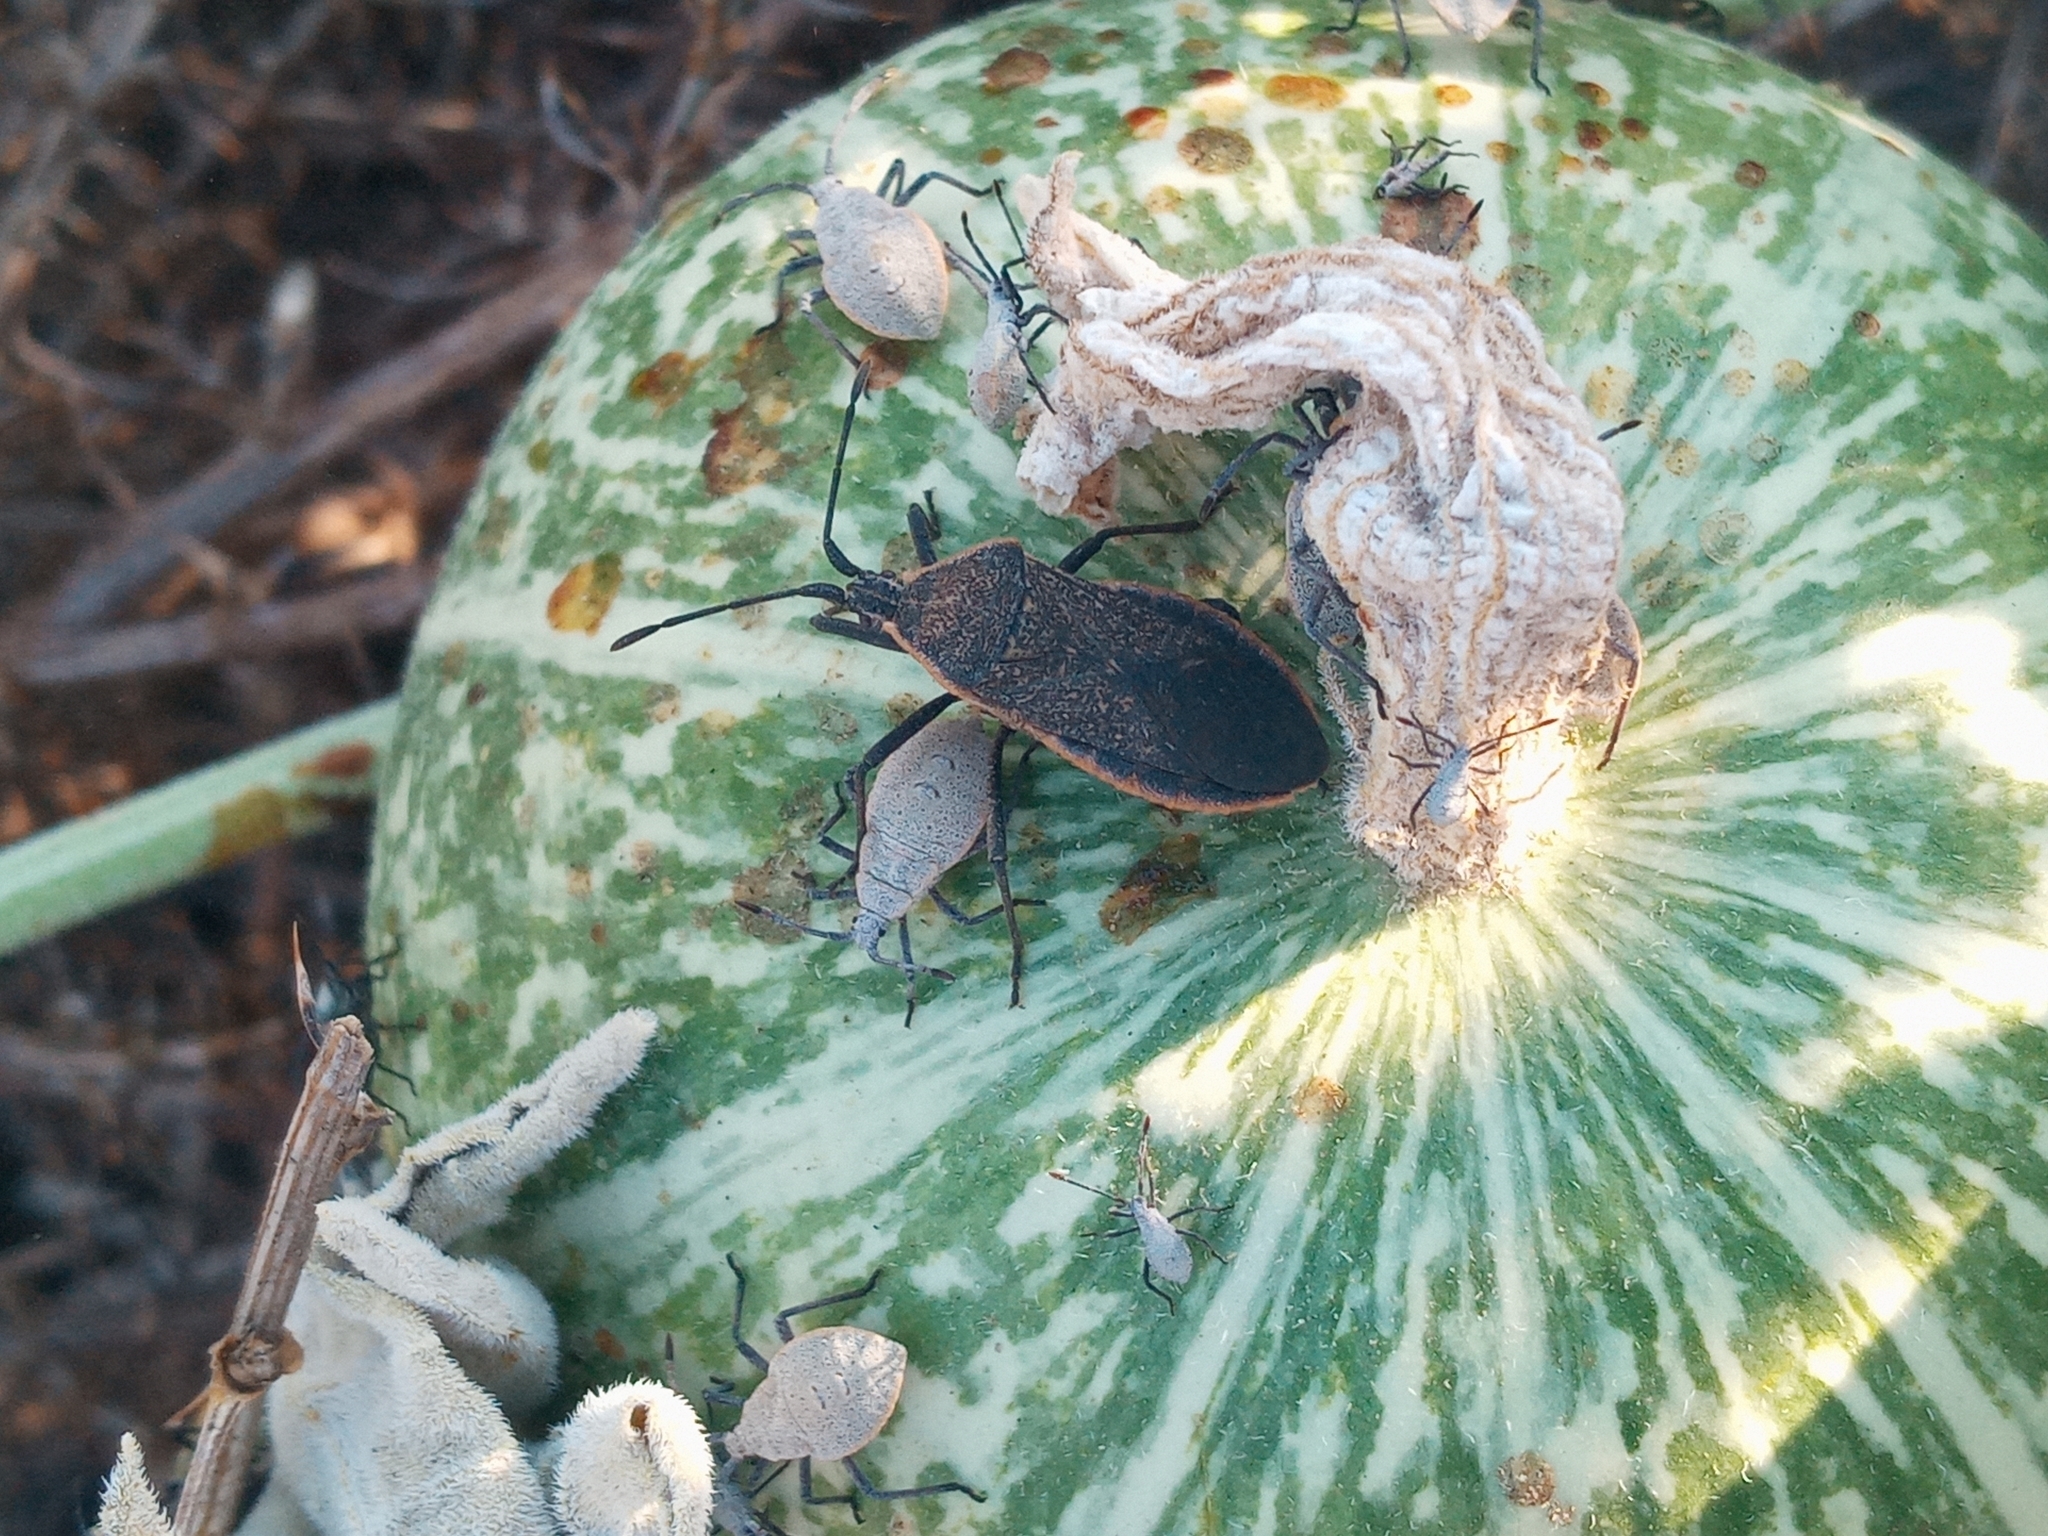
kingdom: Animalia
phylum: Arthropoda
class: Insecta
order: Hemiptera
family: Coreidae
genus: Anasa
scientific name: Anasa tristis
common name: Squash bug
